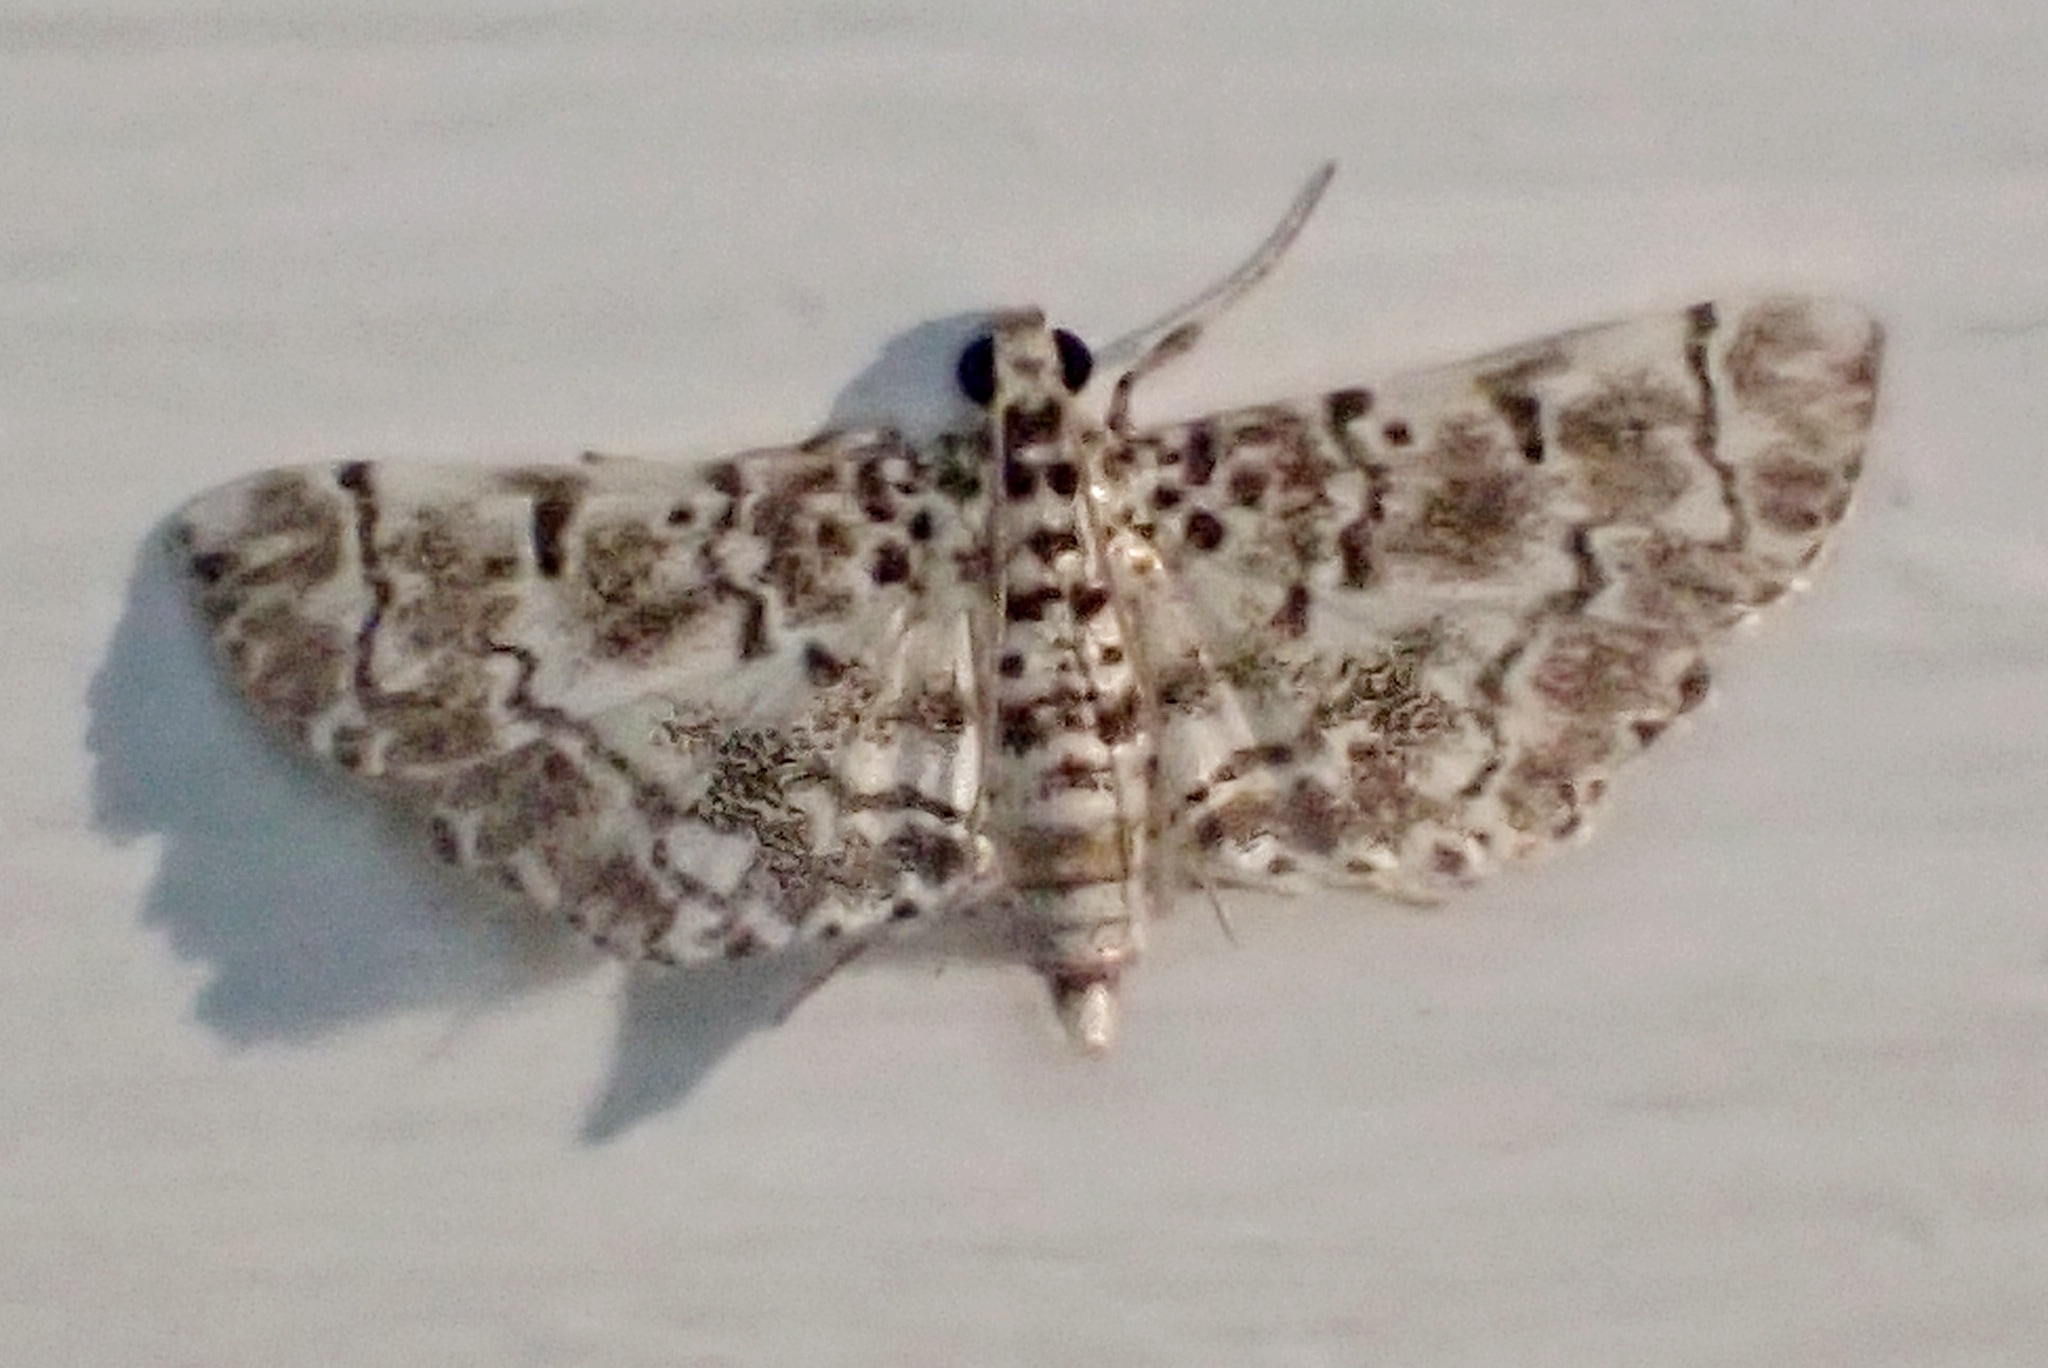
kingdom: Animalia
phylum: Arthropoda
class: Insecta
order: Lepidoptera
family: Crambidae
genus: Metoeca
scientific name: Metoeca foedalis
